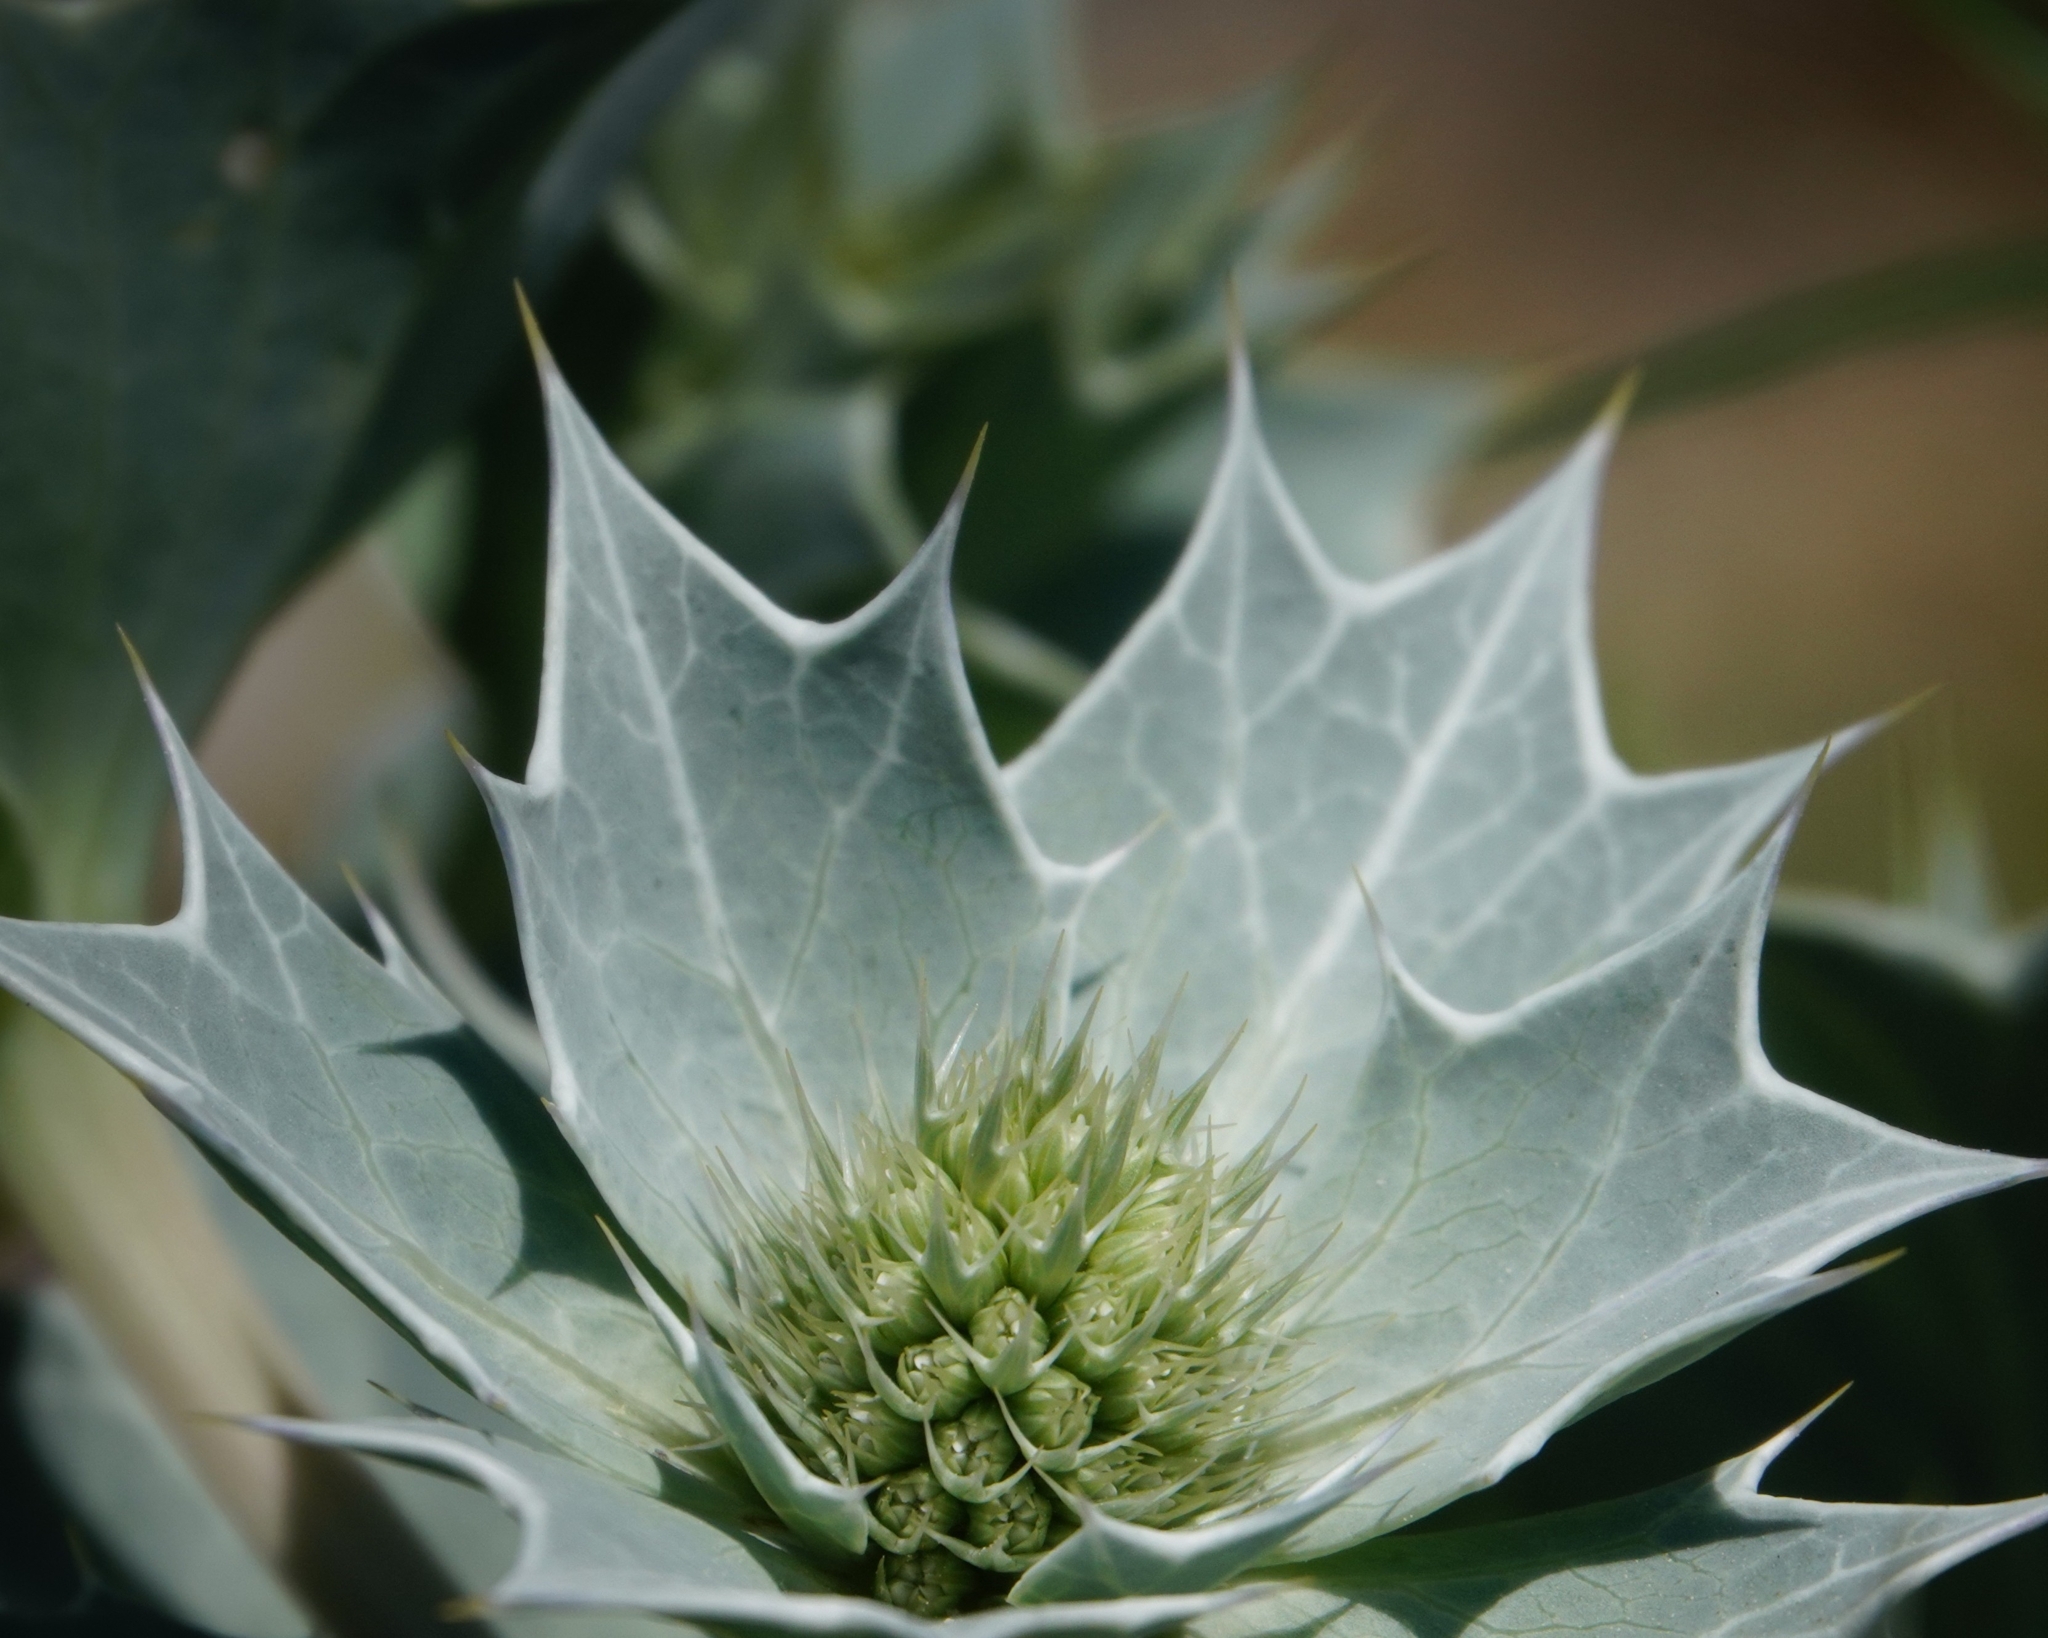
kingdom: Plantae
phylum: Tracheophyta
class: Magnoliopsida
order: Apiales
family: Apiaceae
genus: Eryngium
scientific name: Eryngium maritimum
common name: Sea-holly
